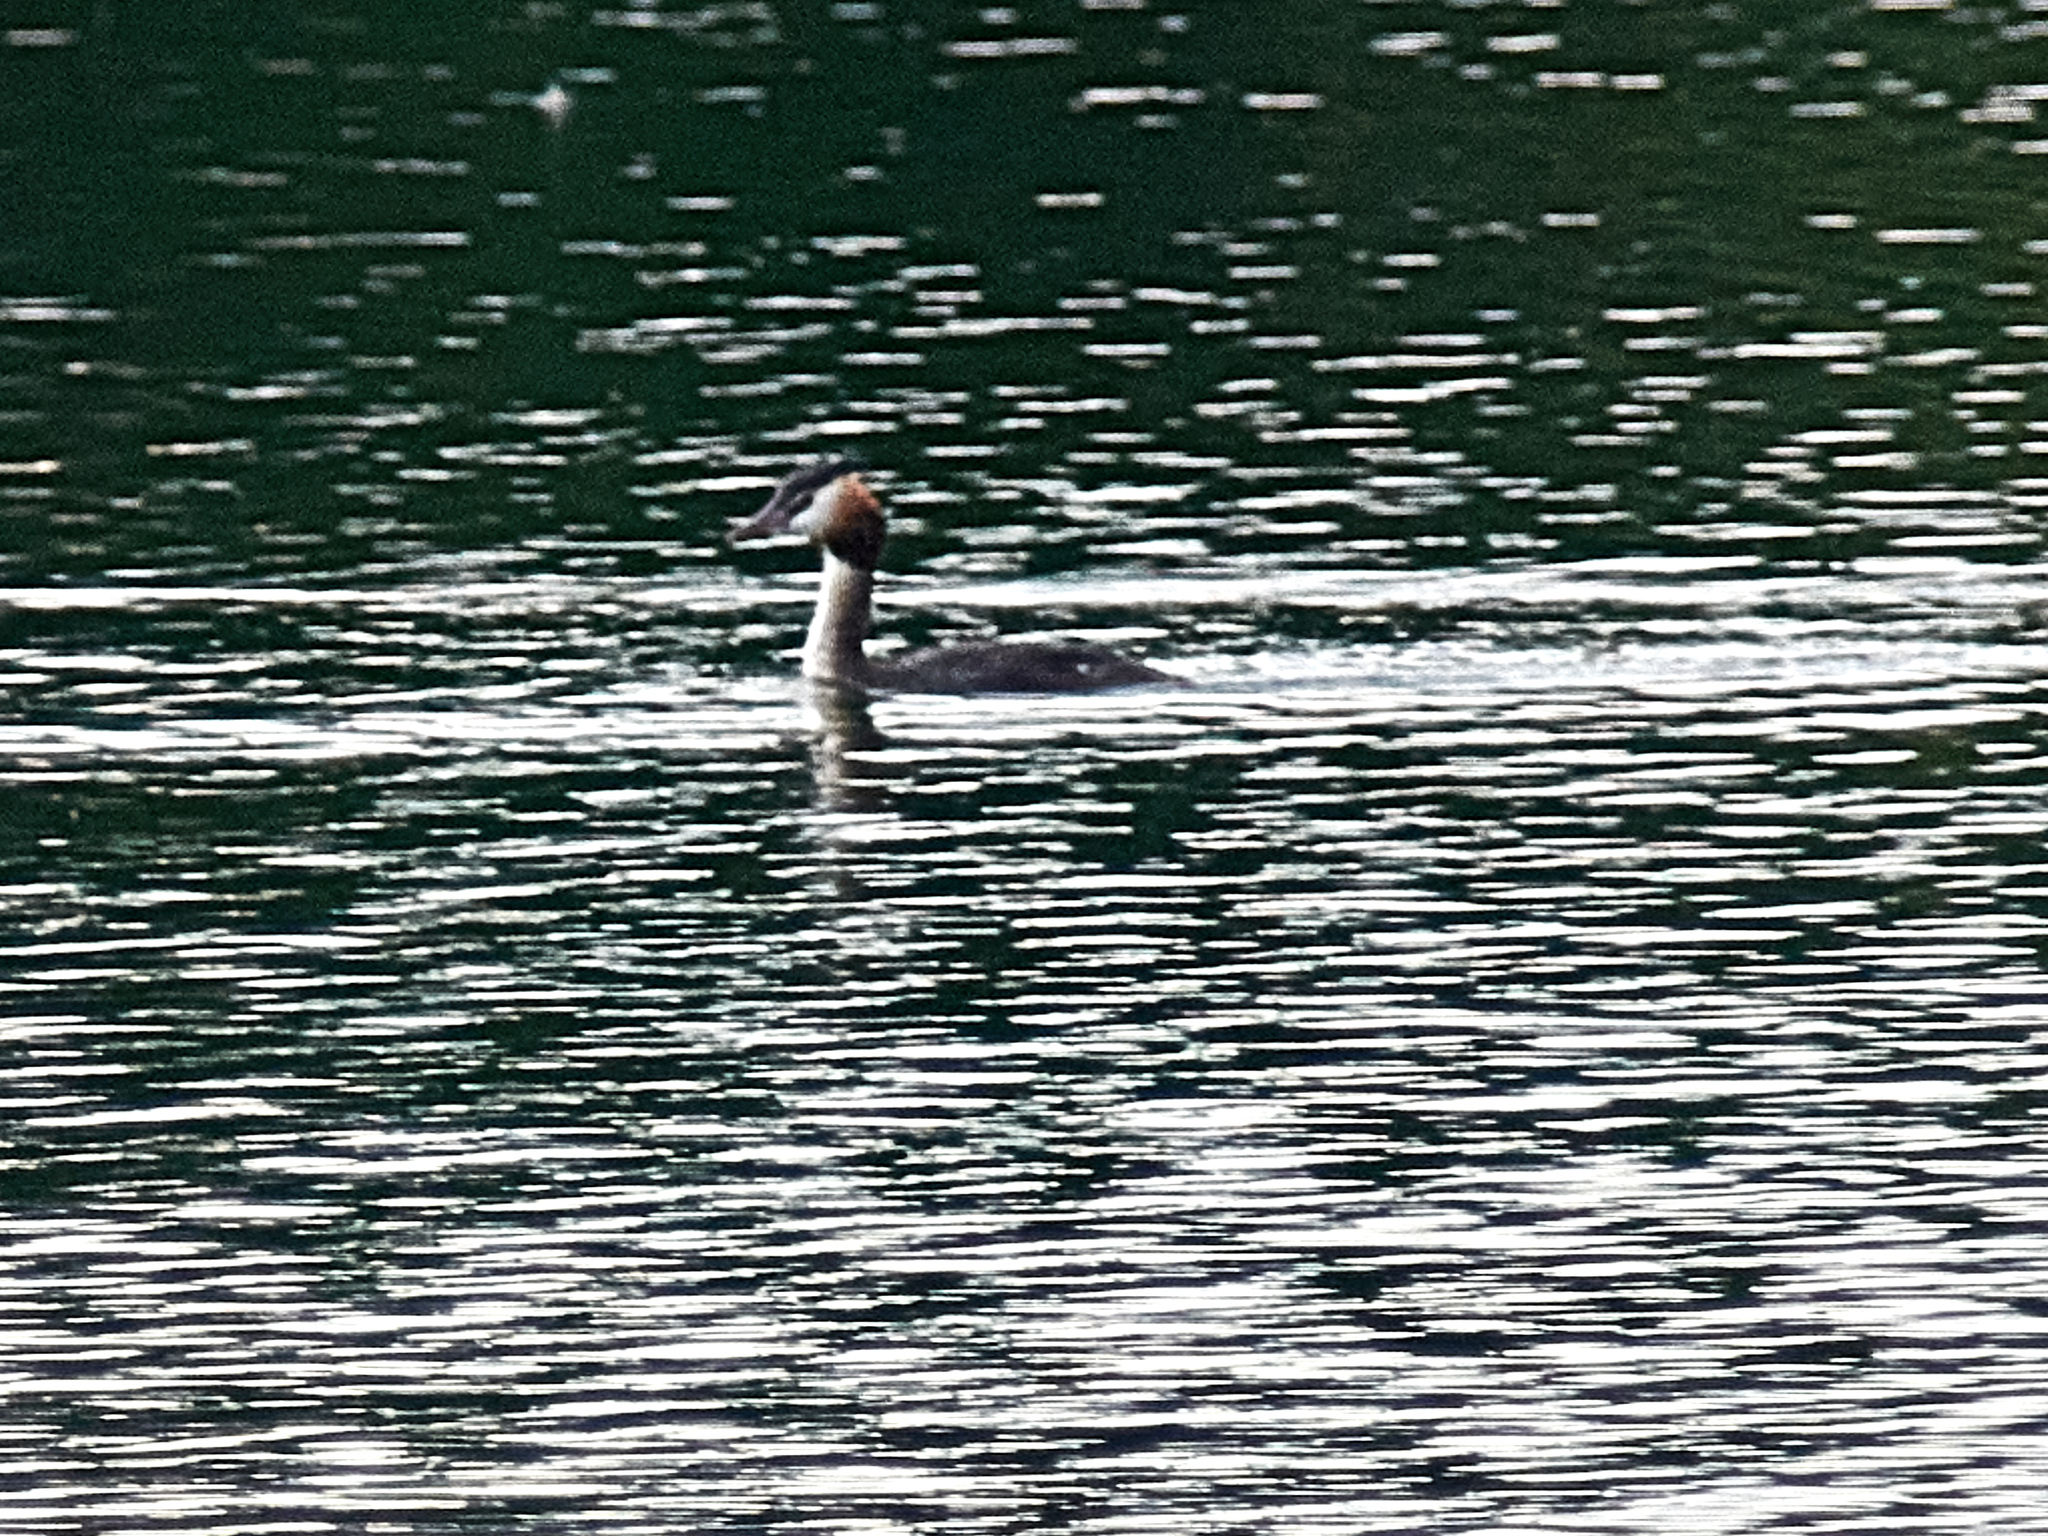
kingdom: Animalia
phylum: Chordata
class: Aves
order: Podicipediformes
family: Podicipedidae
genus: Podiceps
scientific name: Podiceps cristatus
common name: Great crested grebe
